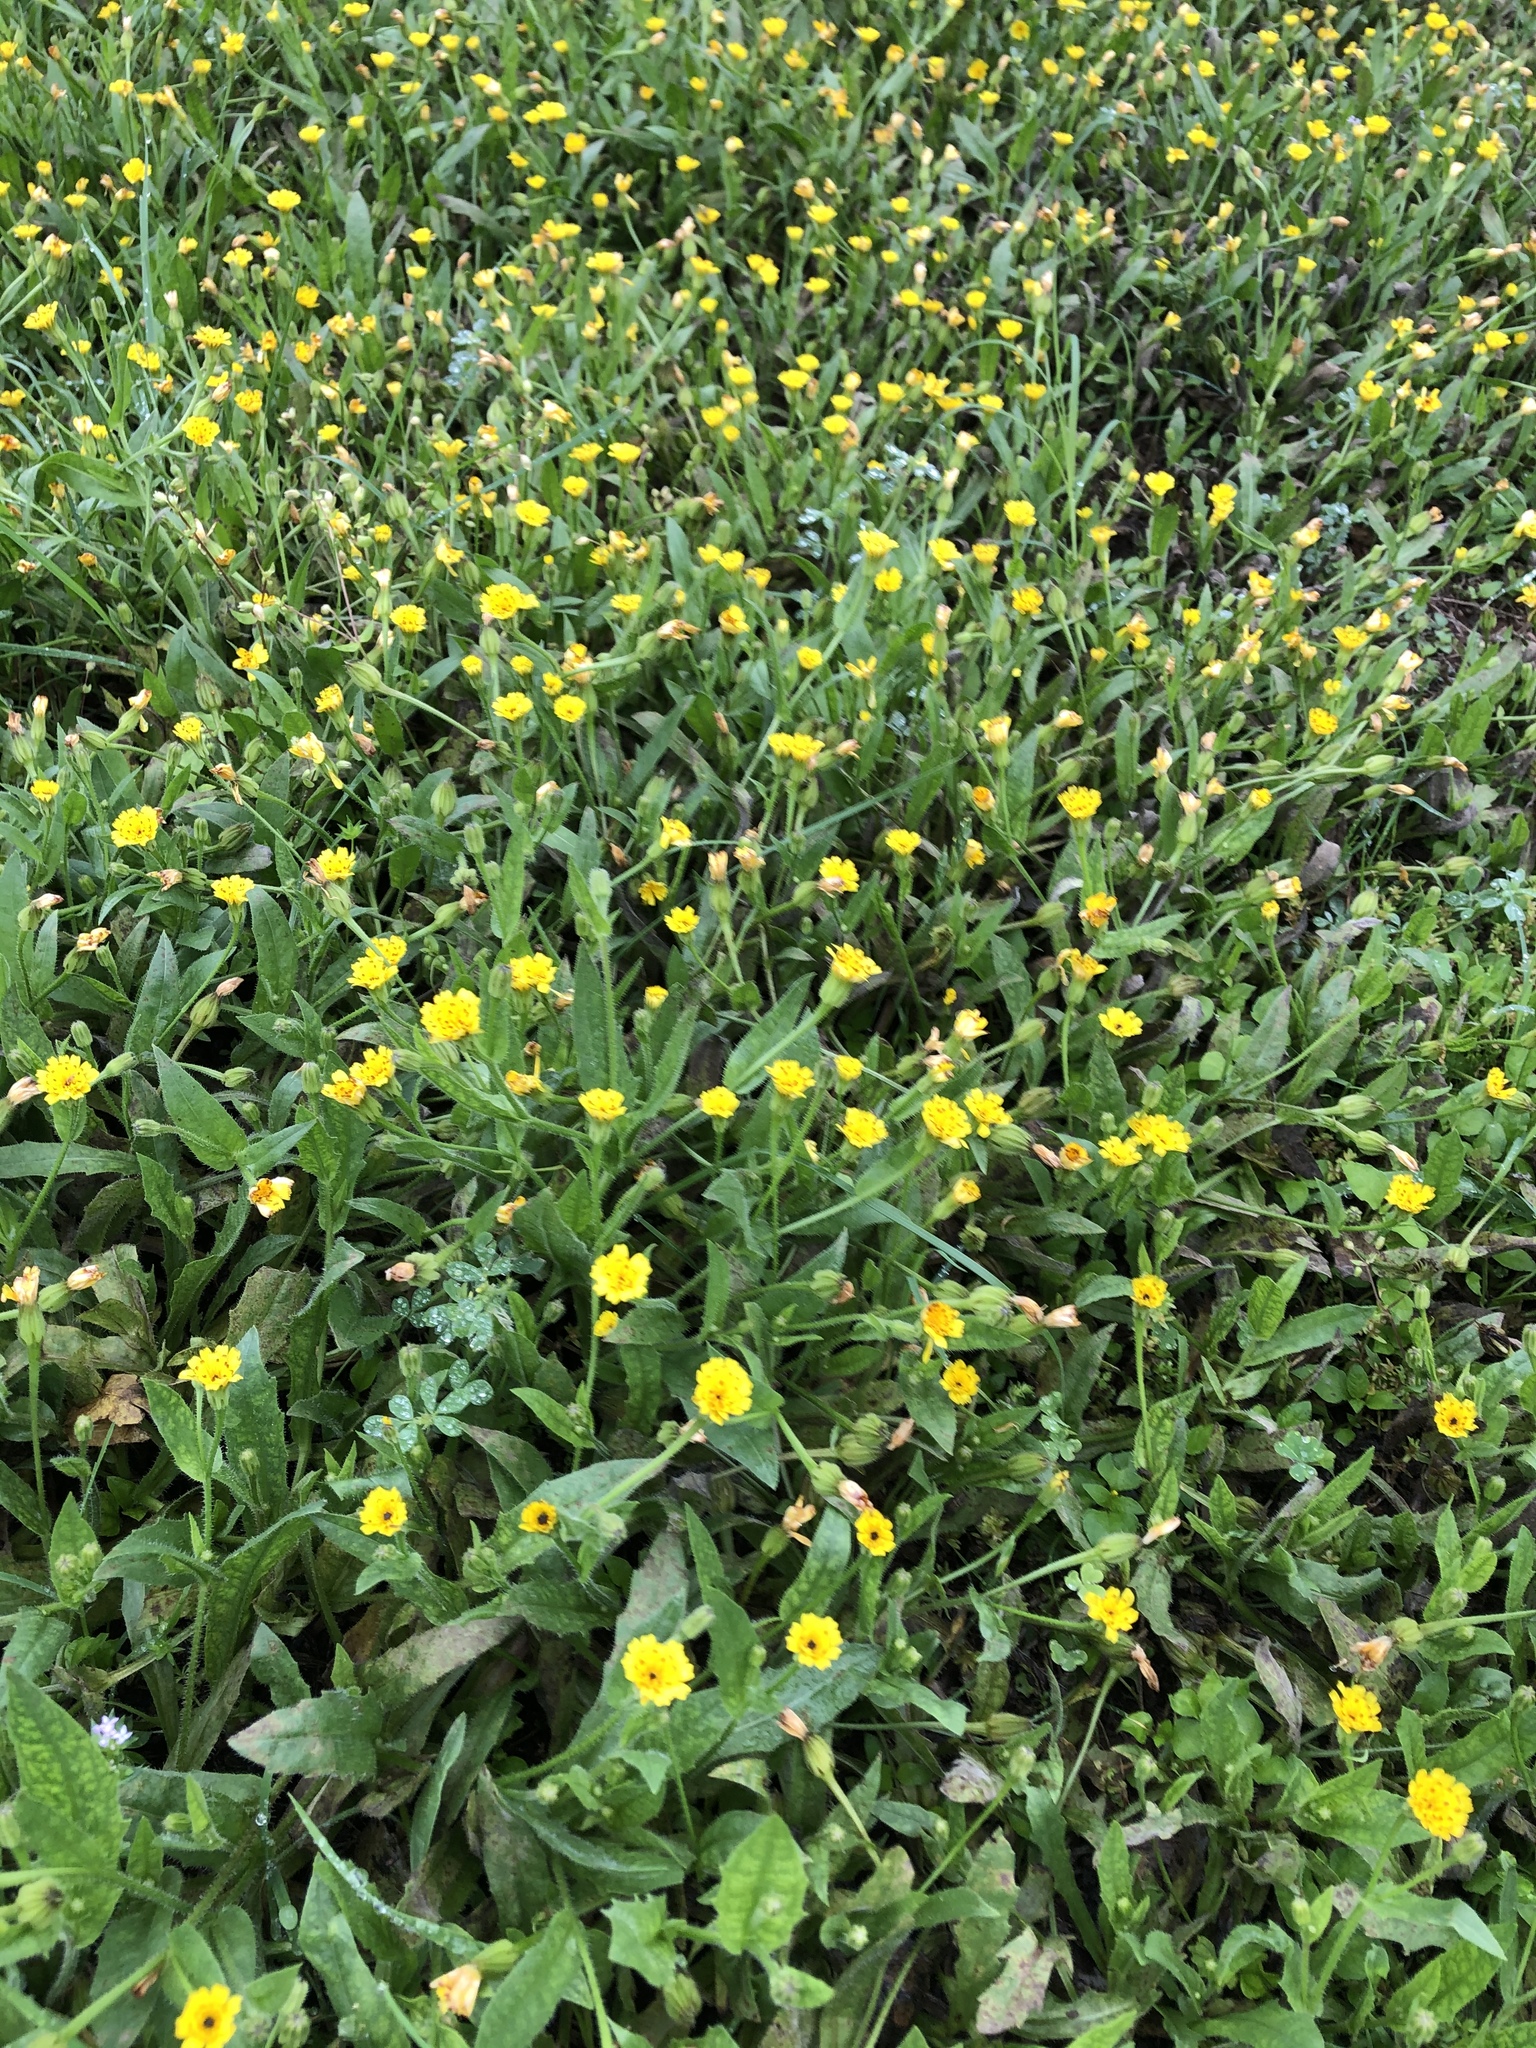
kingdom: Plantae
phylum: Tracheophyta
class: Magnoliopsida
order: Asterales
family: Asteraceae
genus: Hedypnois
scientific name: Hedypnois rhagadioloides
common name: Cretan weed
